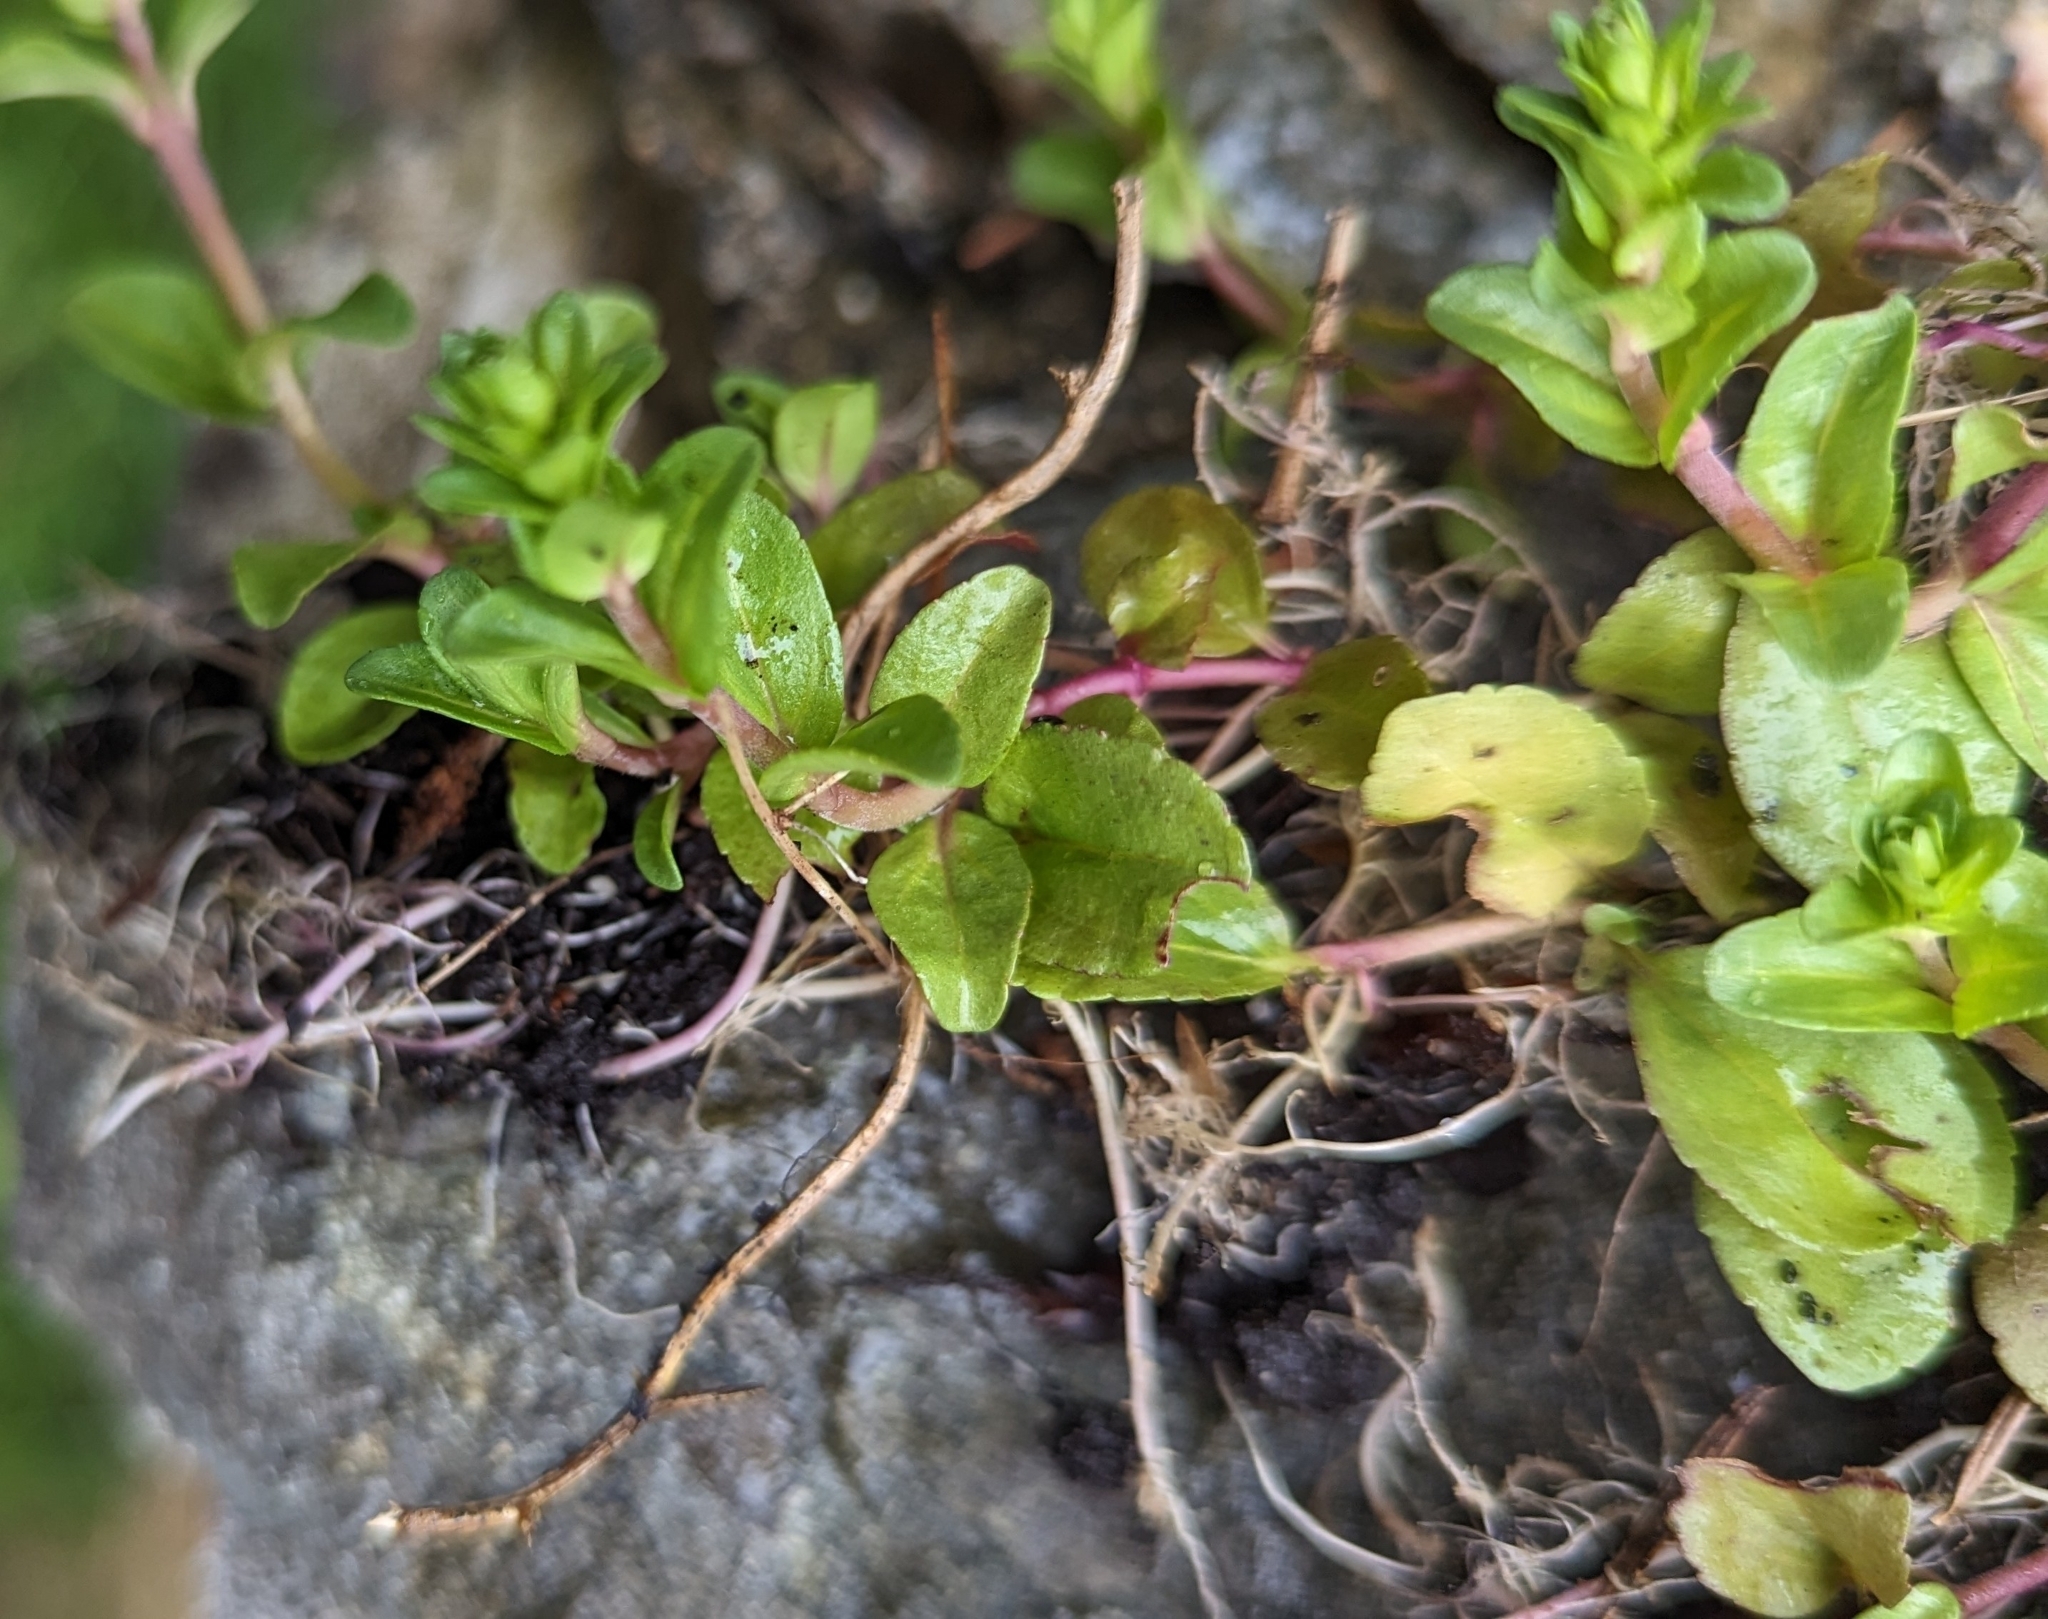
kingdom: Plantae
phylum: Tracheophyta
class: Magnoliopsida
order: Lamiales
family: Plantaginaceae
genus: Veronica
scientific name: Veronica serpyllifolia
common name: Thyme-leaved speedwell
